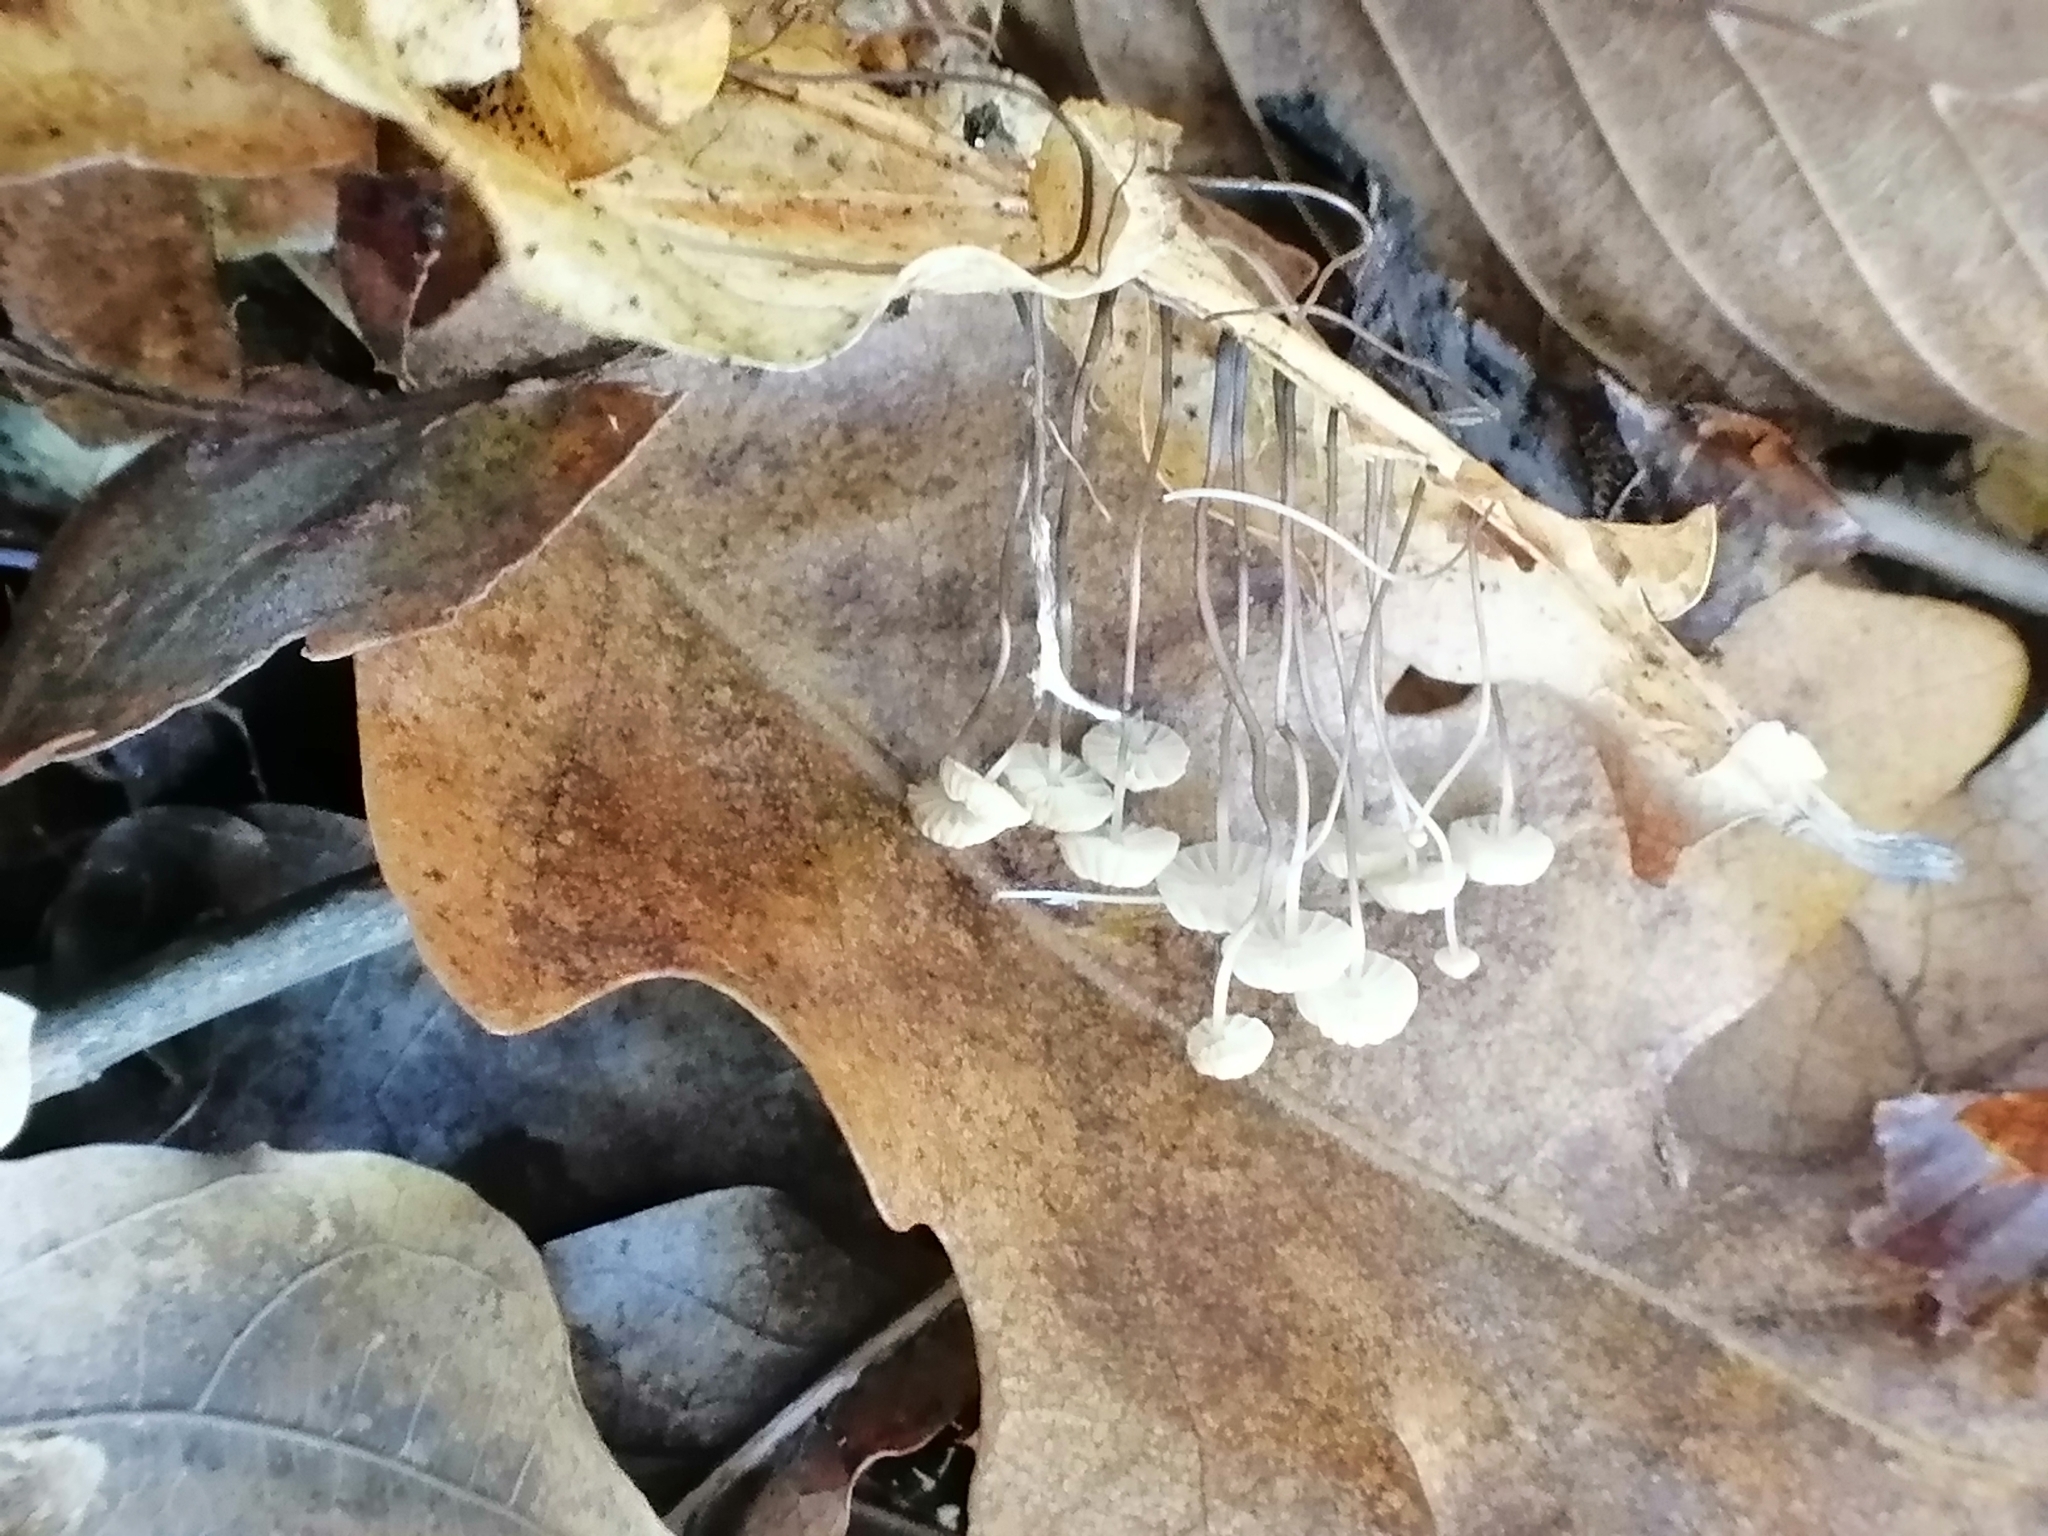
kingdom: Fungi
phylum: Basidiomycota
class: Agaricomycetes
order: Agaricales
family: Marasmiaceae
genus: Marasmius
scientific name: Marasmius bulliardii
